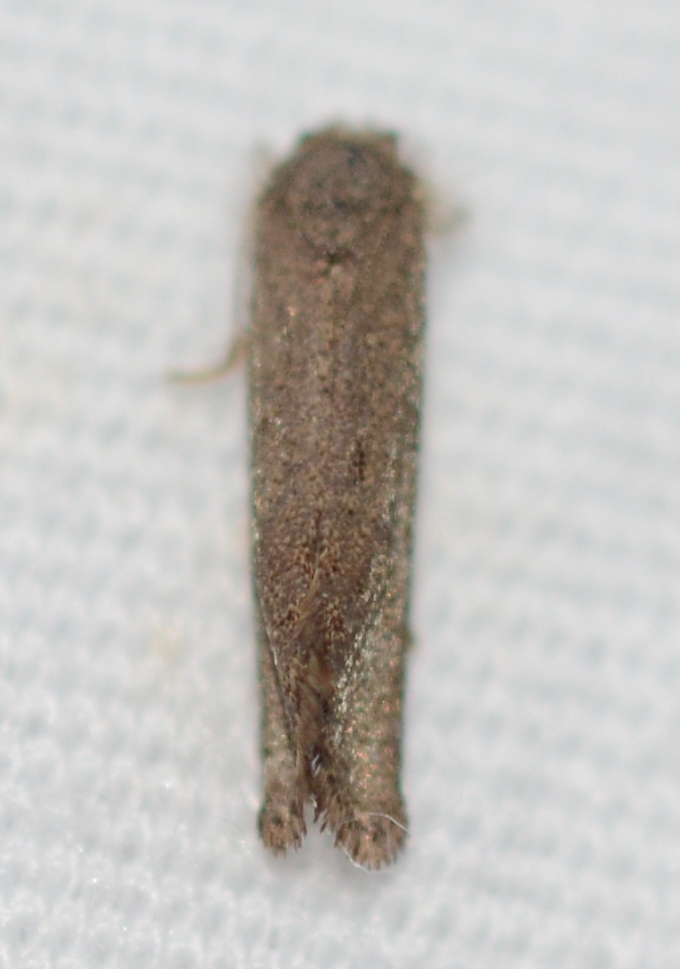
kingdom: Animalia
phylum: Arthropoda
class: Insecta
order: Lepidoptera
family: Tineidae
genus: Acrolophus
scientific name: Acrolophus heppneri
